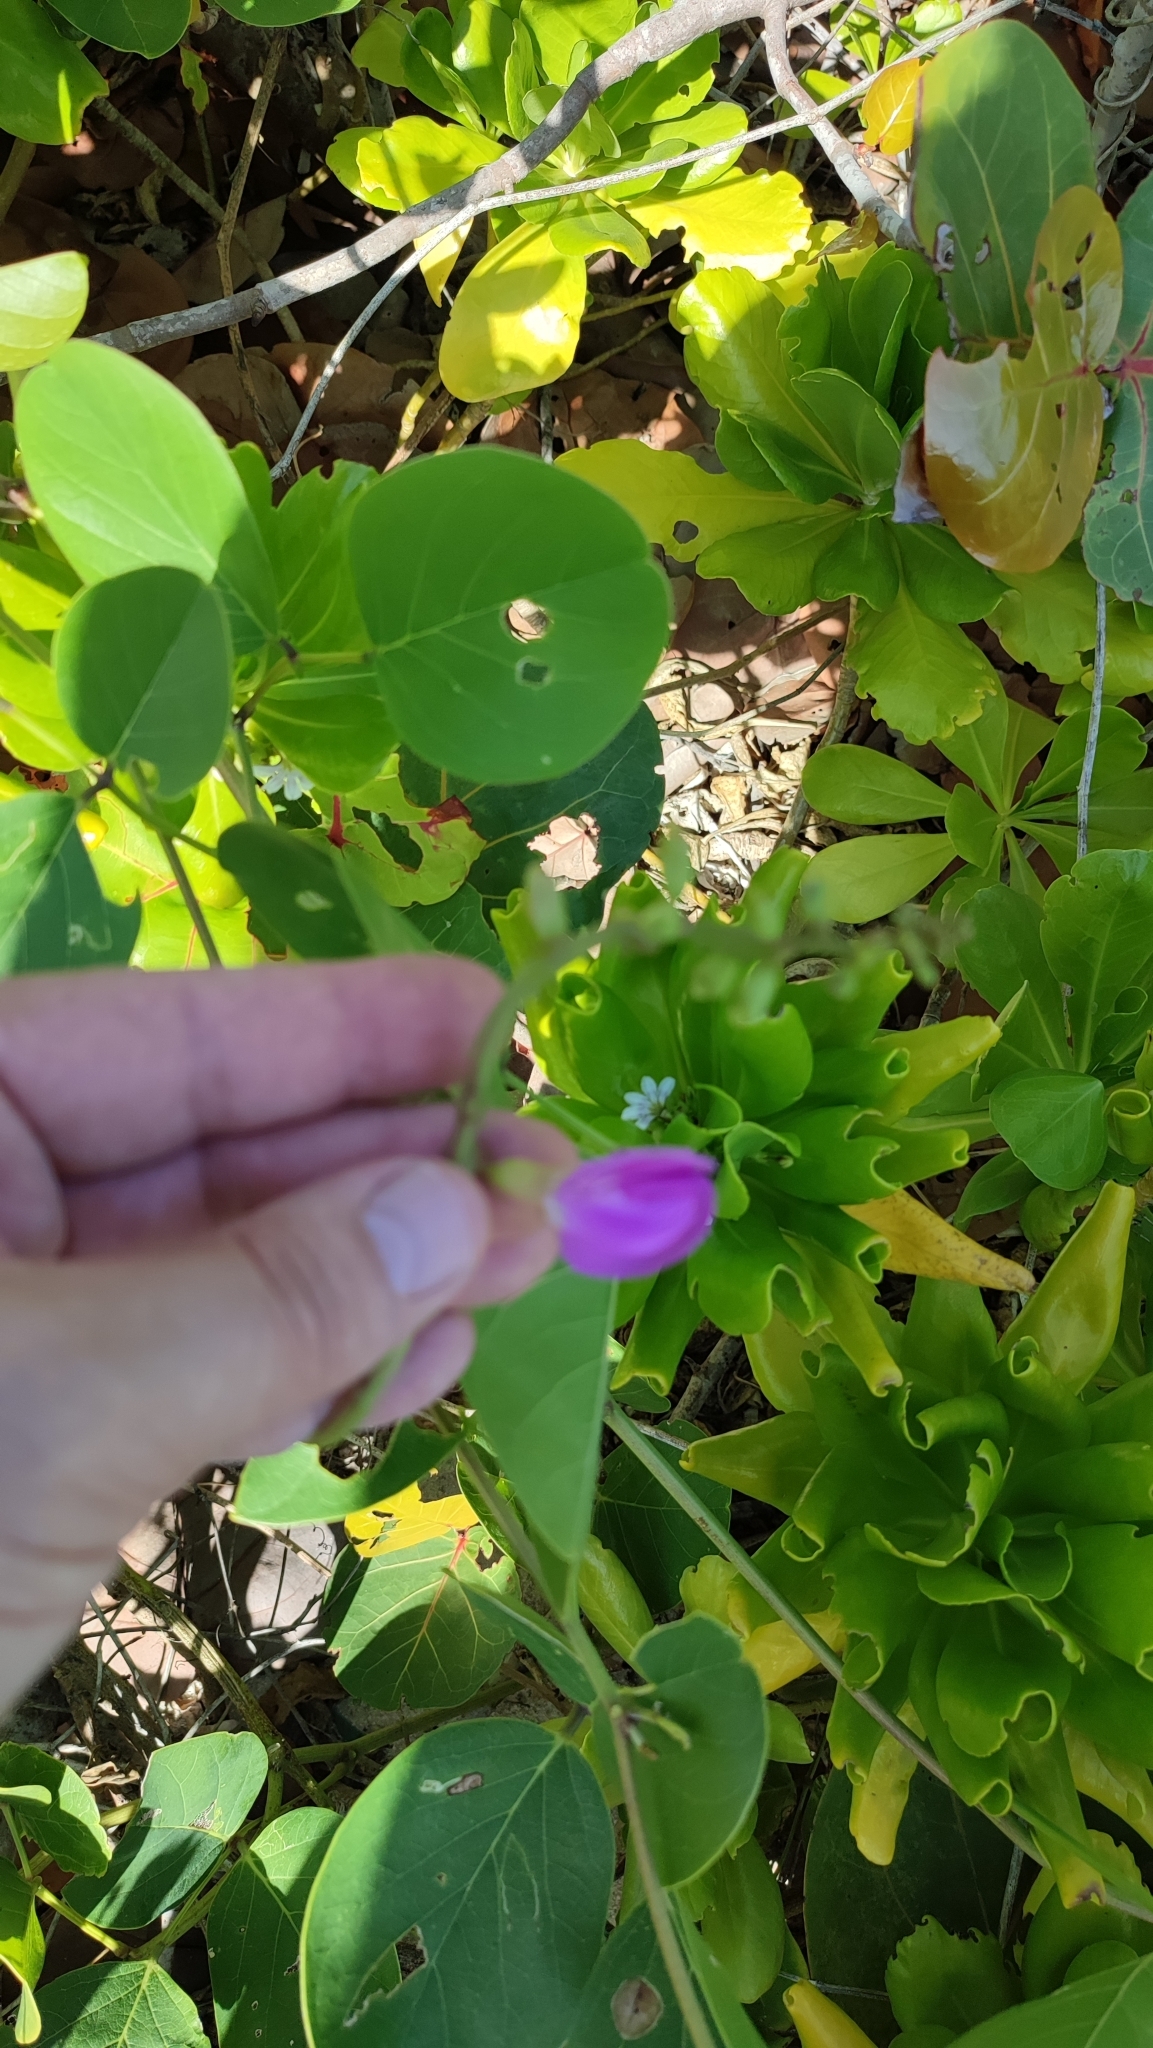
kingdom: Plantae
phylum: Tracheophyta
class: Magnoliopsida
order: Fabales
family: Fabaceae
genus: Canavalia
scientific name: Canavalia rosea
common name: Beach-bean
